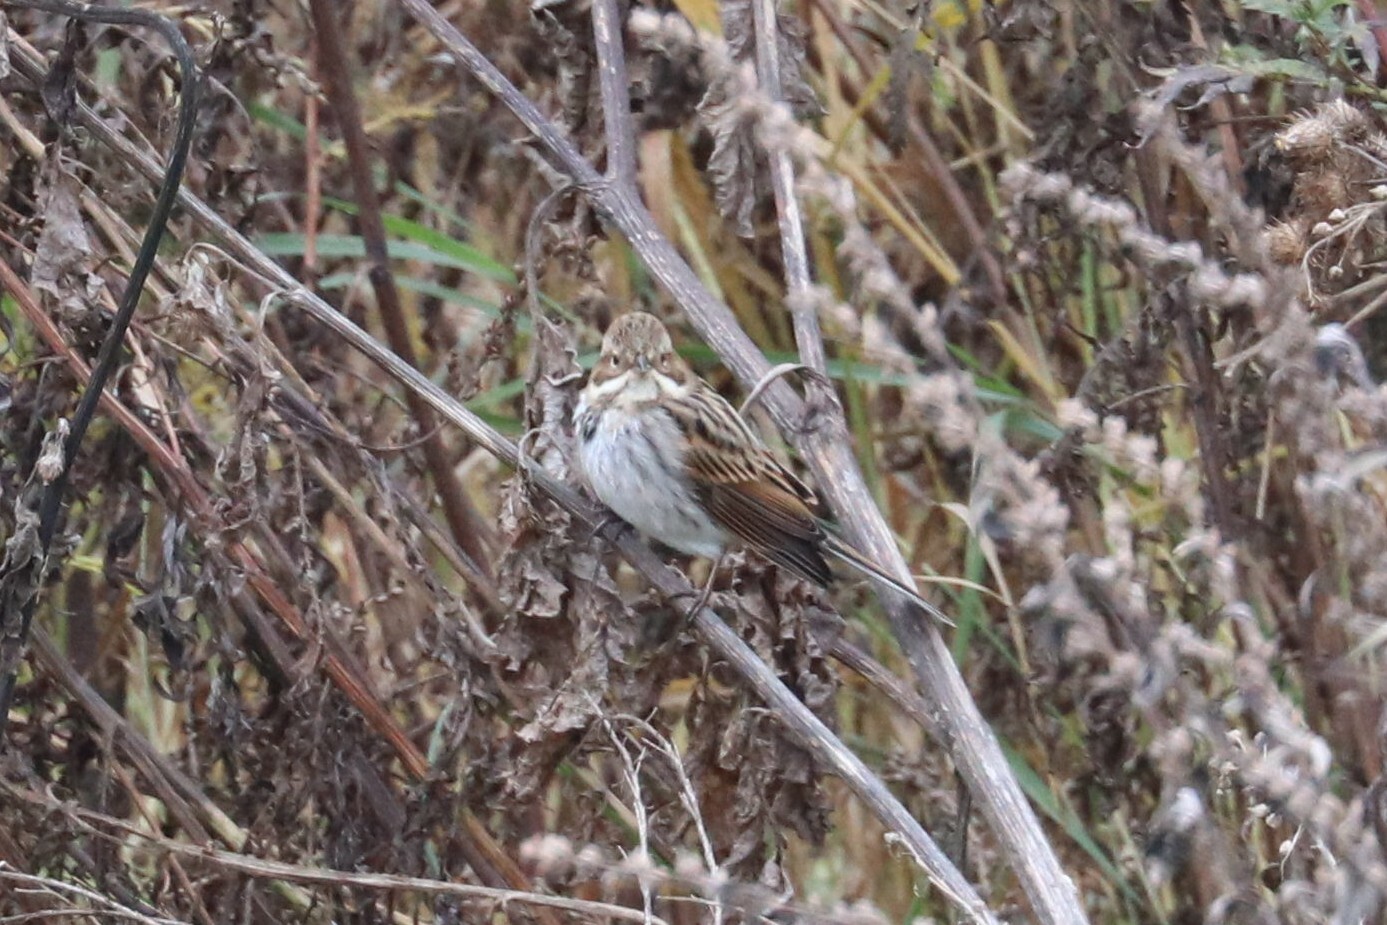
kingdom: Animalia
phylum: Chordata
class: Aves
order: Passeriformes
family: Emberizidae
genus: Emberiza
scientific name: Emberiza schoeniclus
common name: Reed bunting
